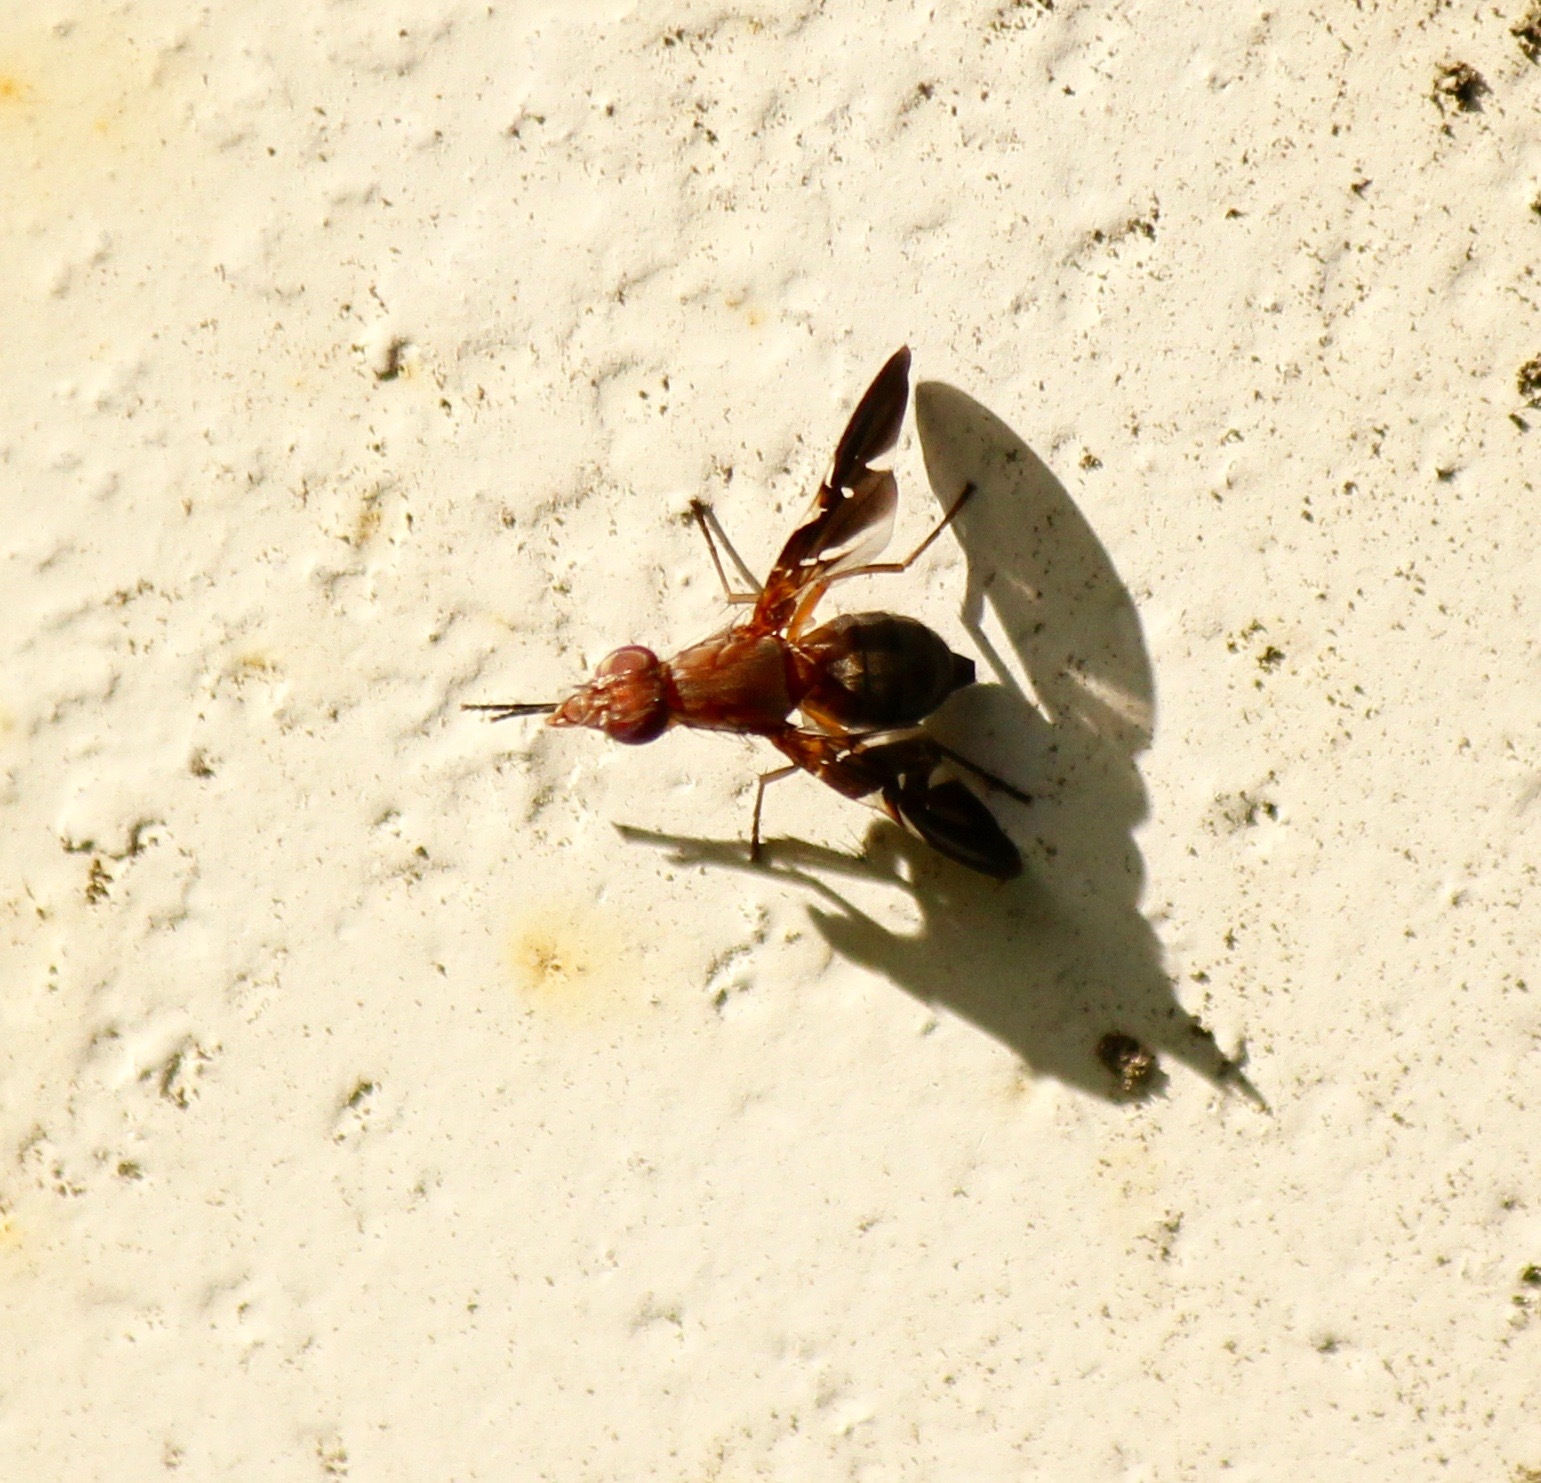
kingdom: Animalia
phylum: Arthropoda
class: Insecta
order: Diptera
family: Ulidiidae
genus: Delphinia
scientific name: Delphinia picta
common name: Common picture-winged fly
